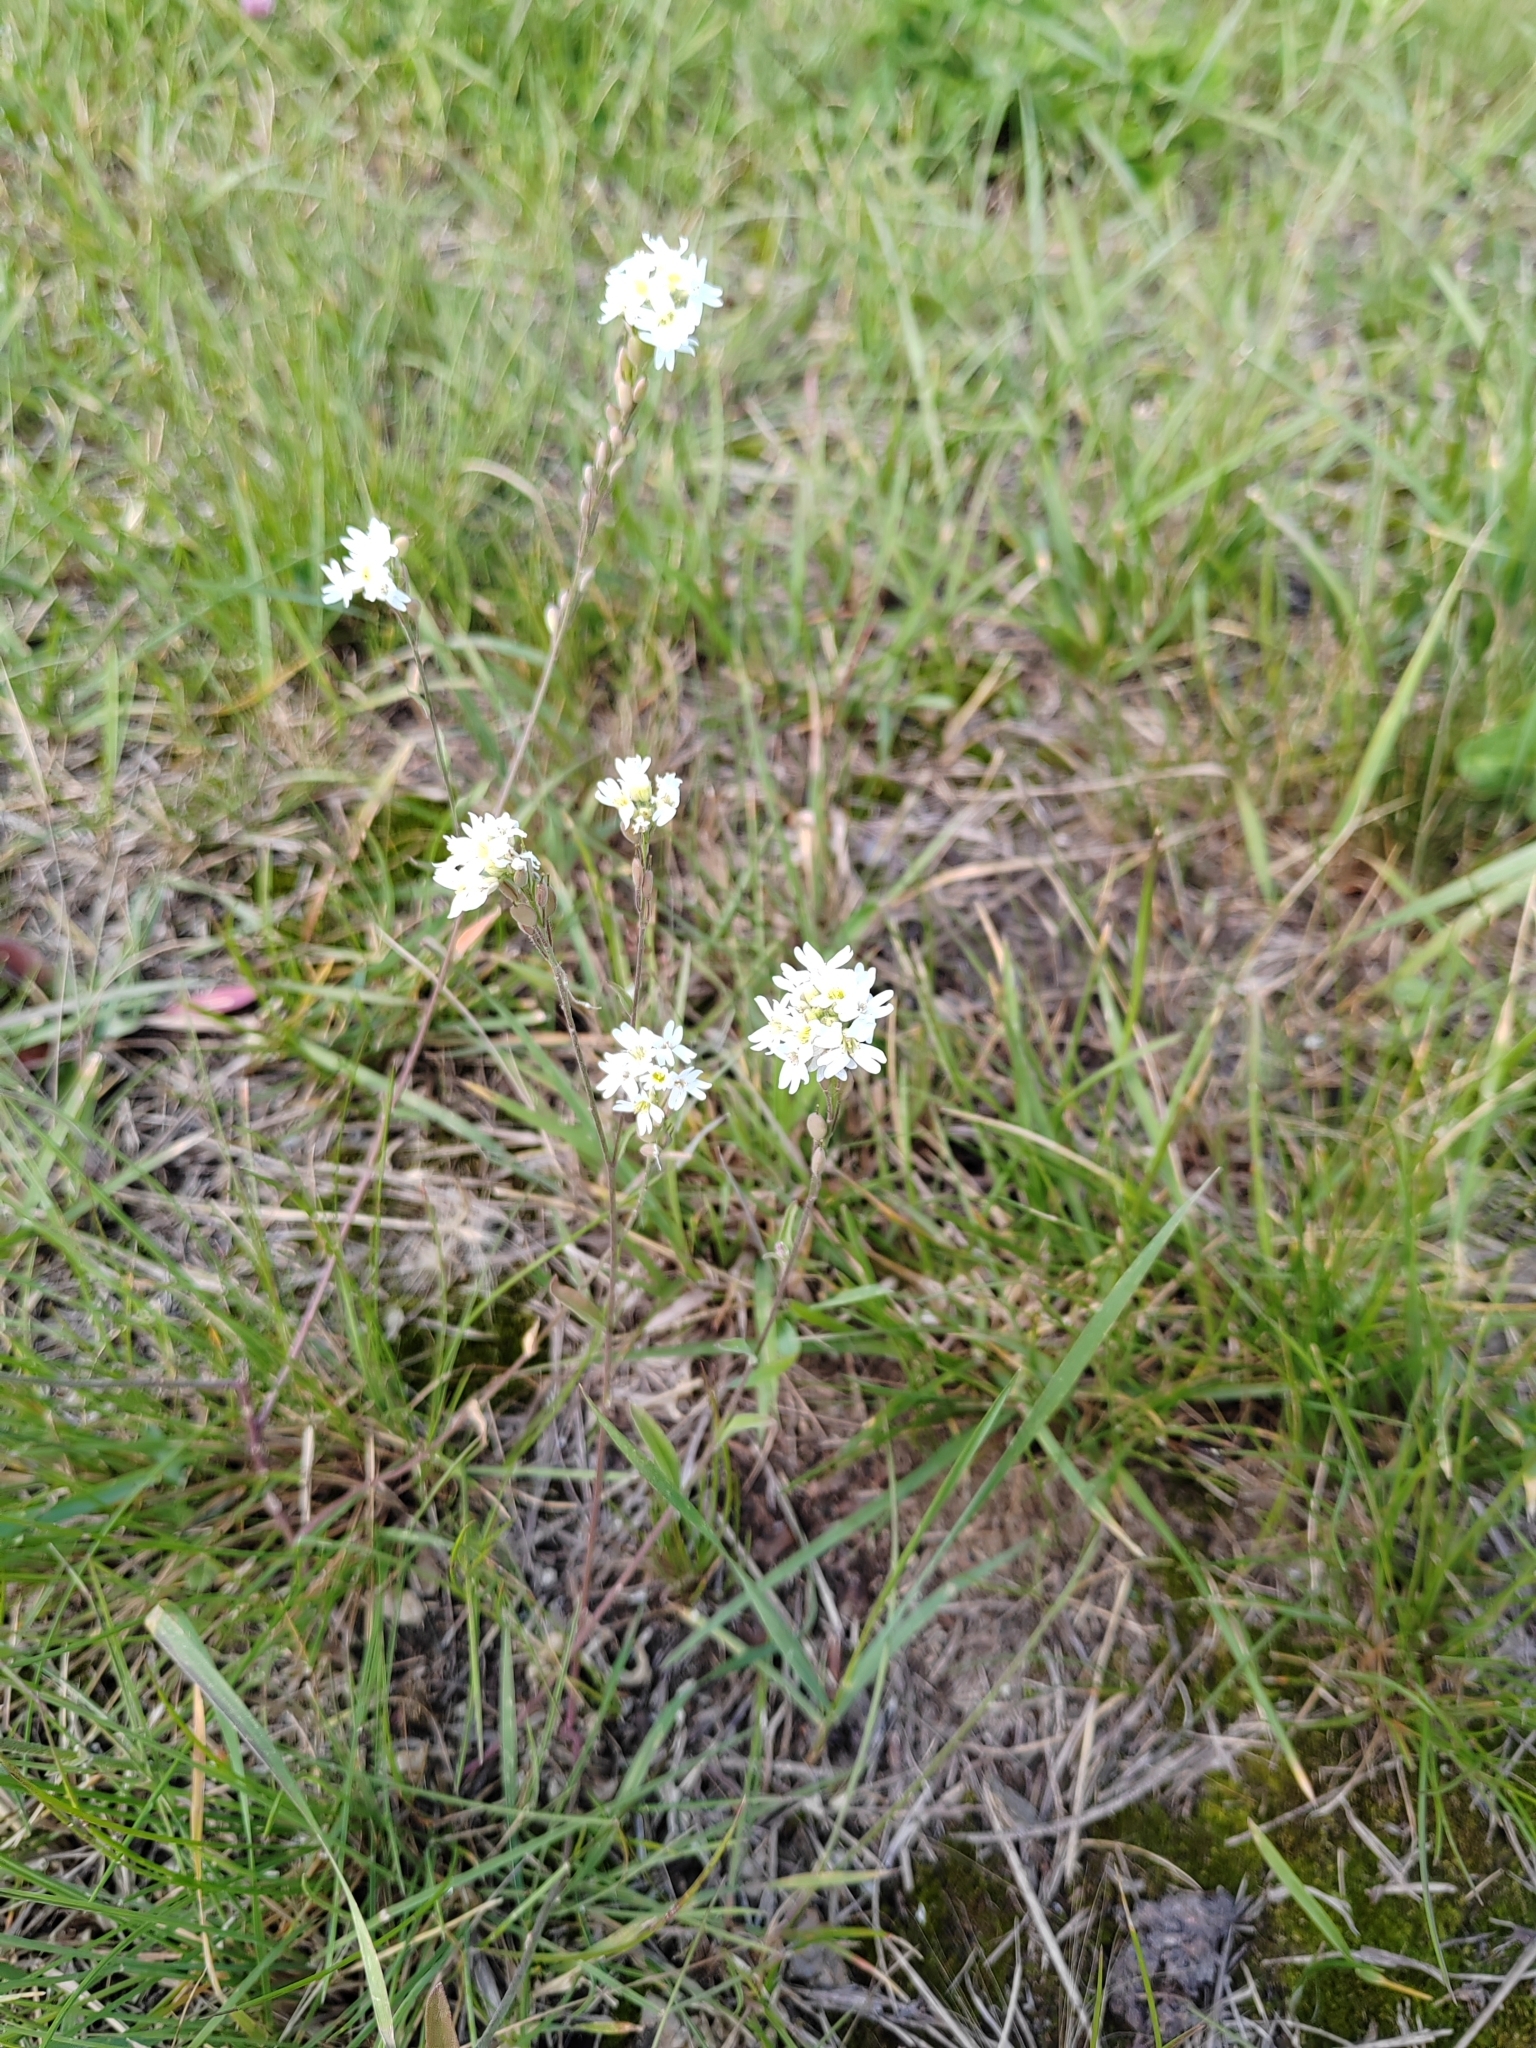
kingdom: Plantae
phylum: Tracheophyta
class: Magnoliopsida
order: Brassicales
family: Brassicaceae
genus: Berteroa
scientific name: Berteroa incana
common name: Hoary alison
